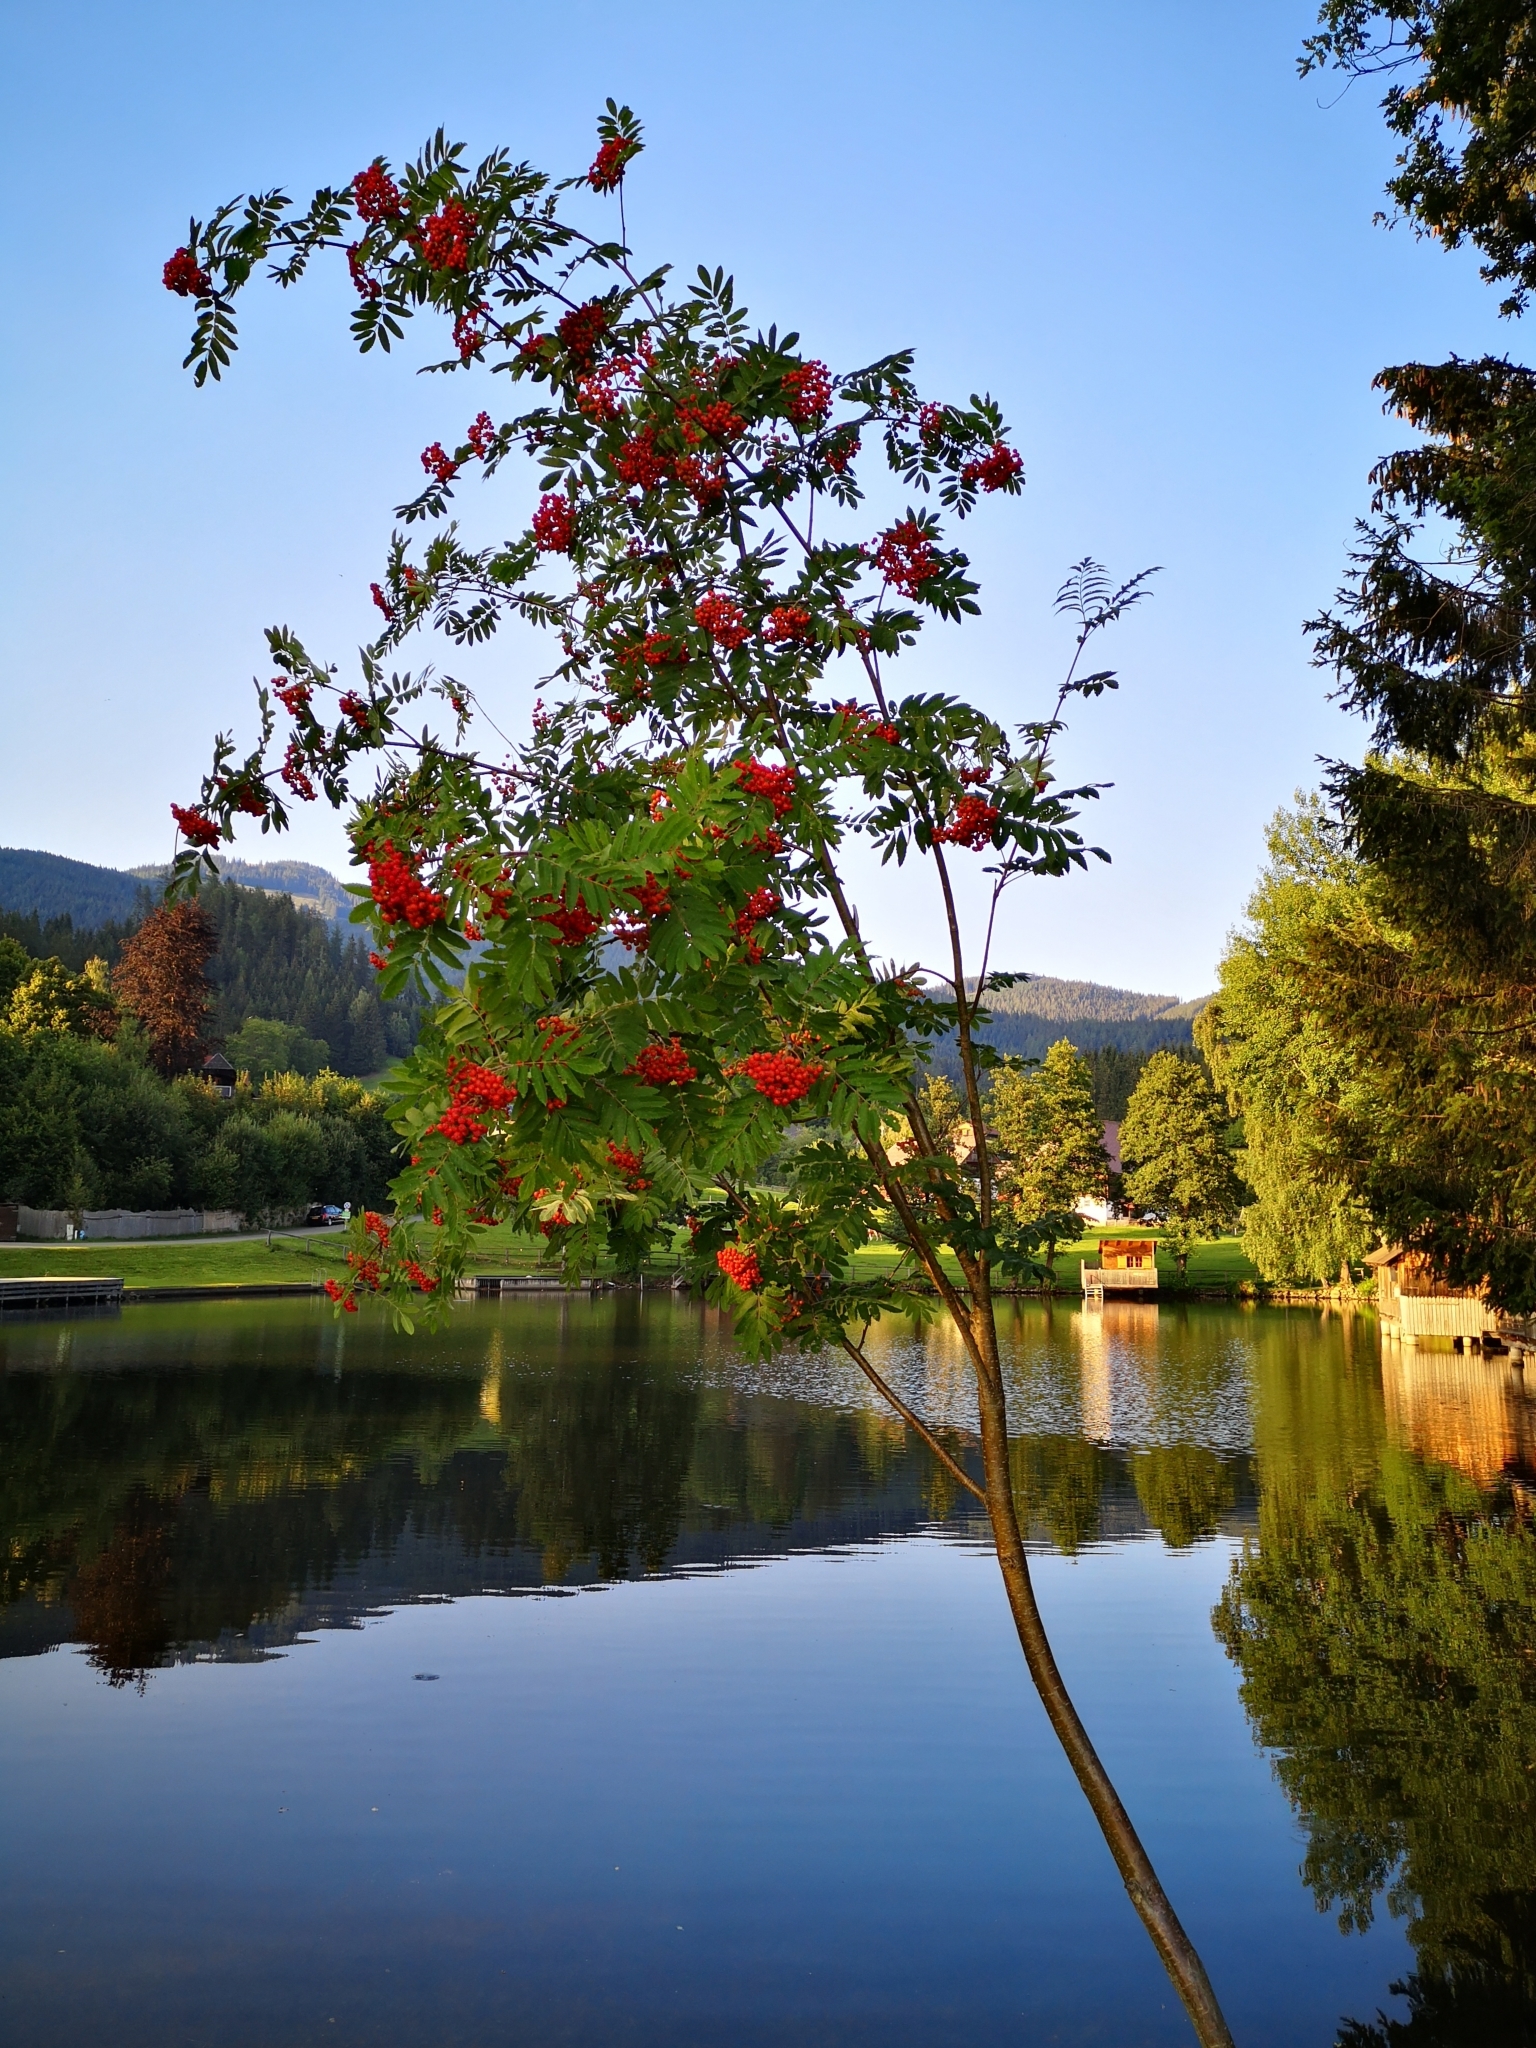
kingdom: Plantae
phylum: Tracheophyta
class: Magnoliopsida
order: Rosales
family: Rosaceae
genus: Sorbus
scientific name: Sorbus aucuparia
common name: Rowan
